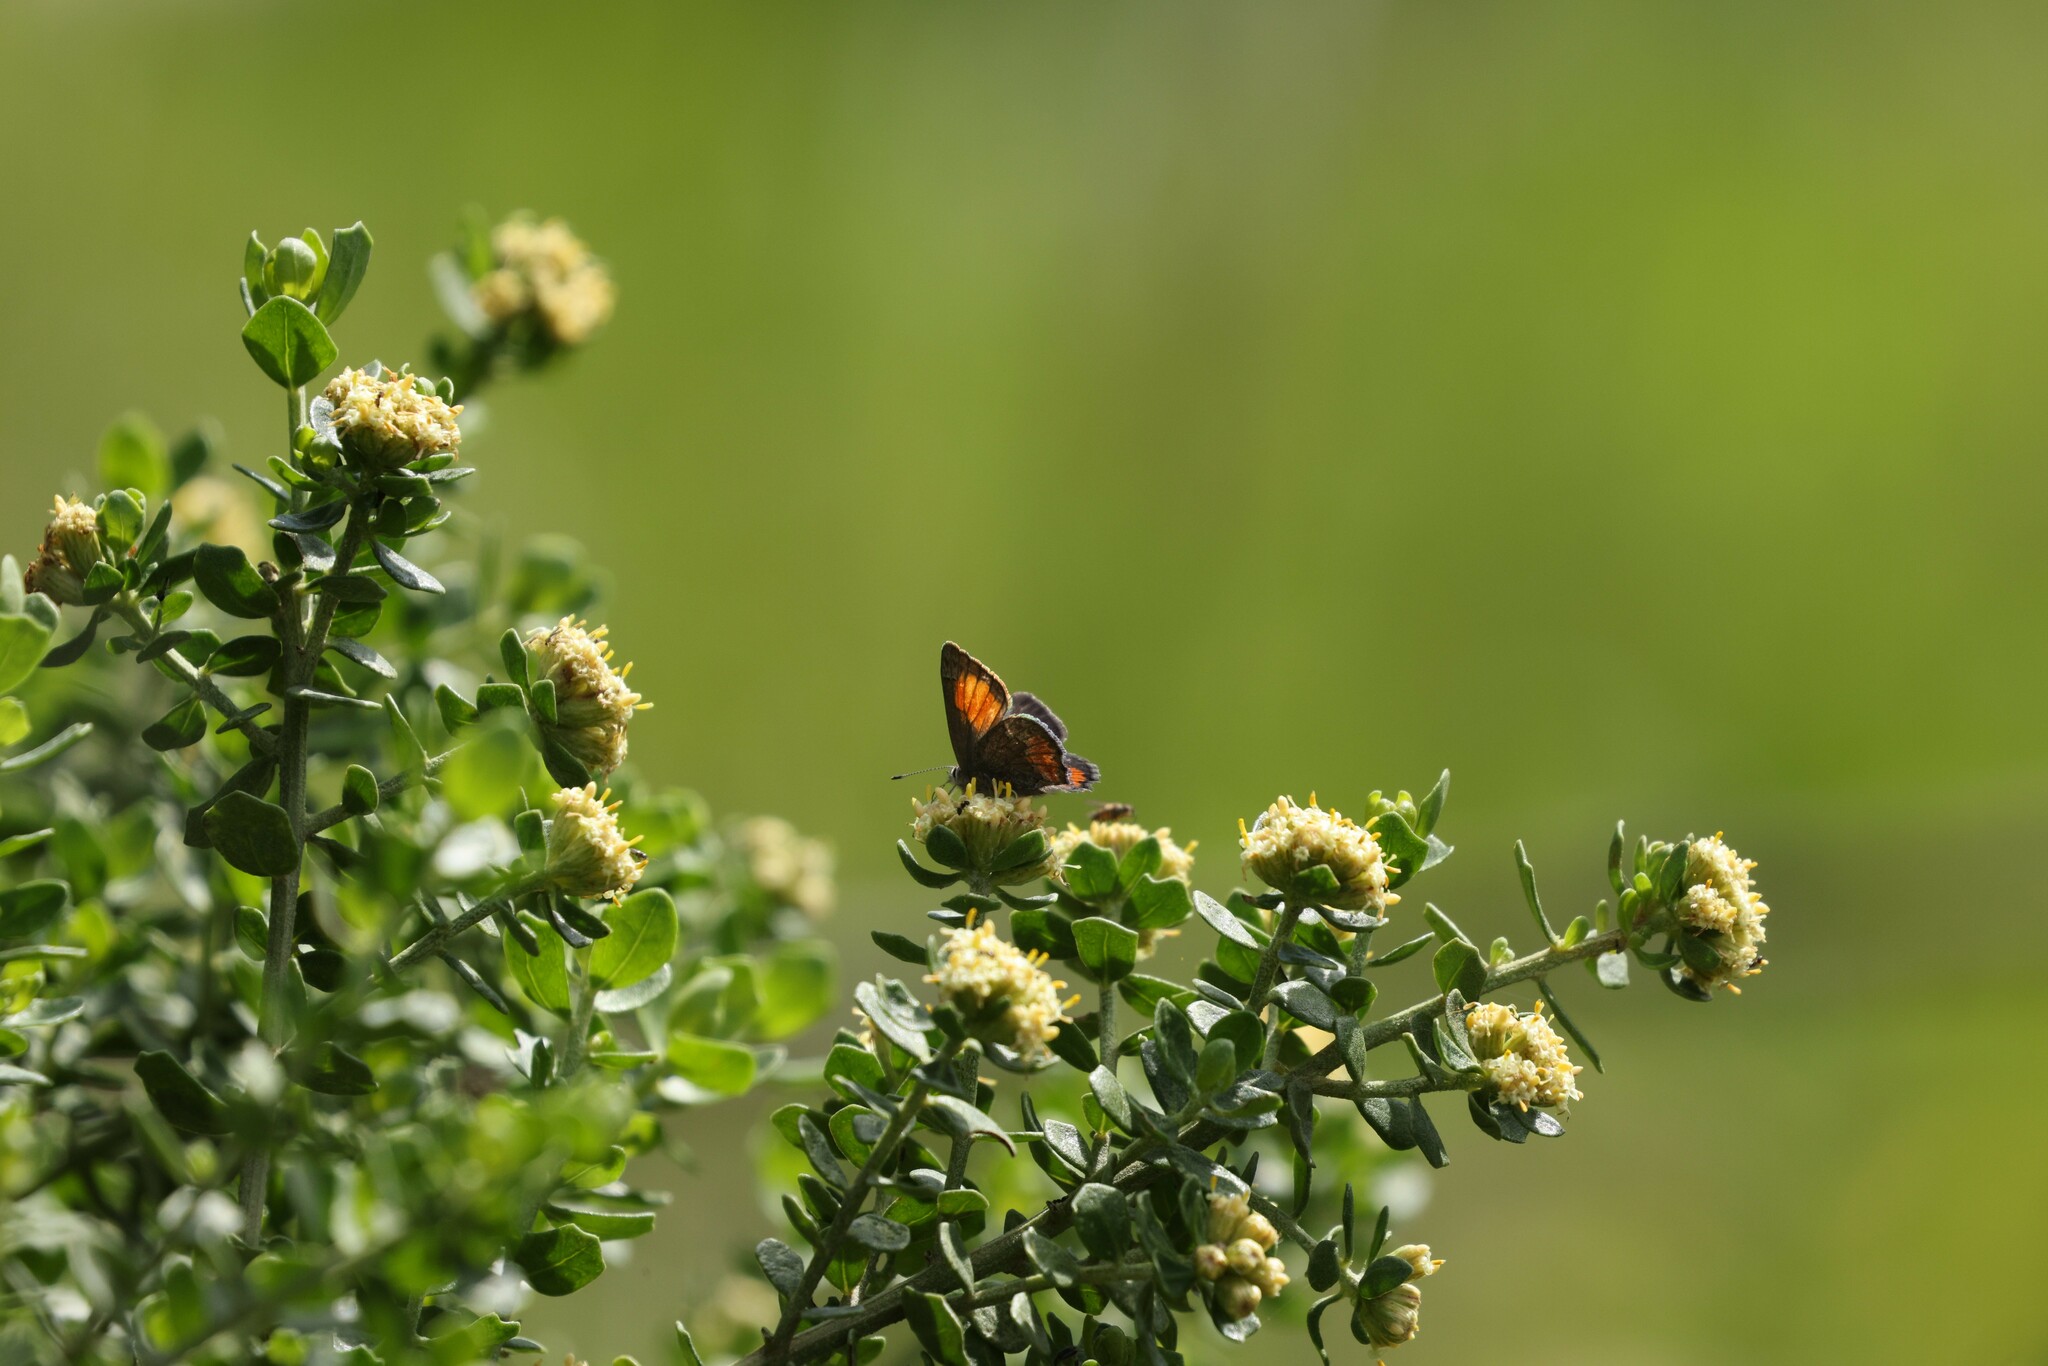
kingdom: Animalia
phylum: Arthropoda
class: Insecta
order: Lepidoptera
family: Lycaenidae
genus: Strymon
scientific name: Strymon
